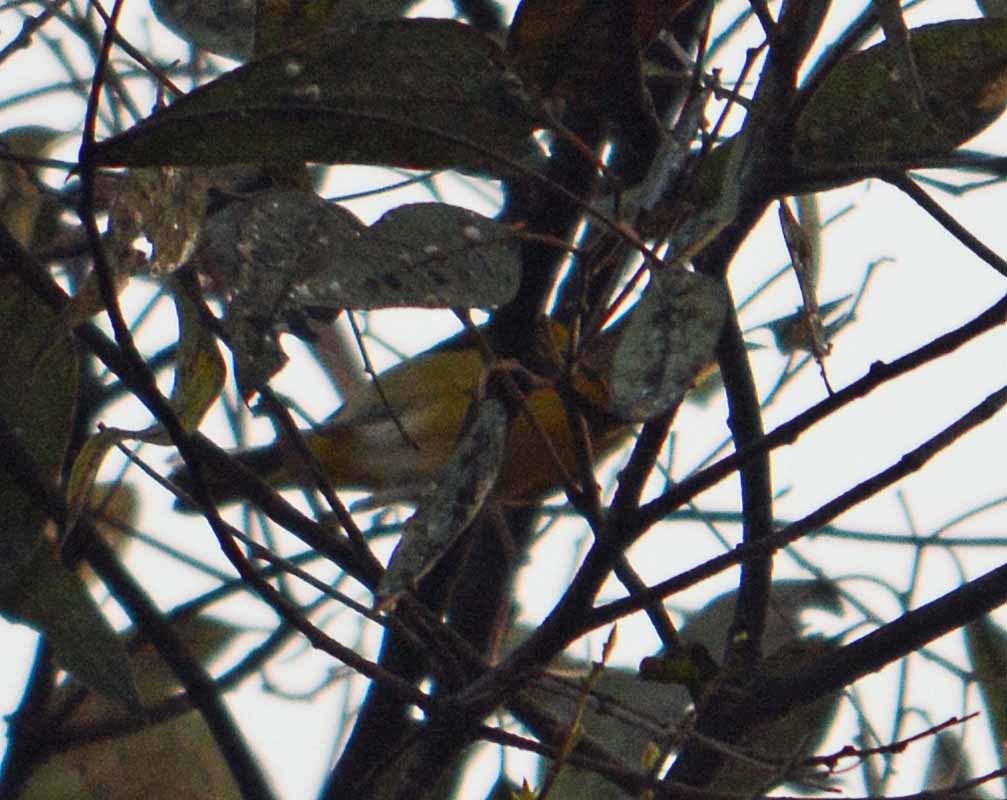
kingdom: Animalia
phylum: Chordata
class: Aves
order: Passeriformes
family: Parulidae
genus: Leiothlypis
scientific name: Leiothlypis ruficapilla
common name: Nashville warbler
